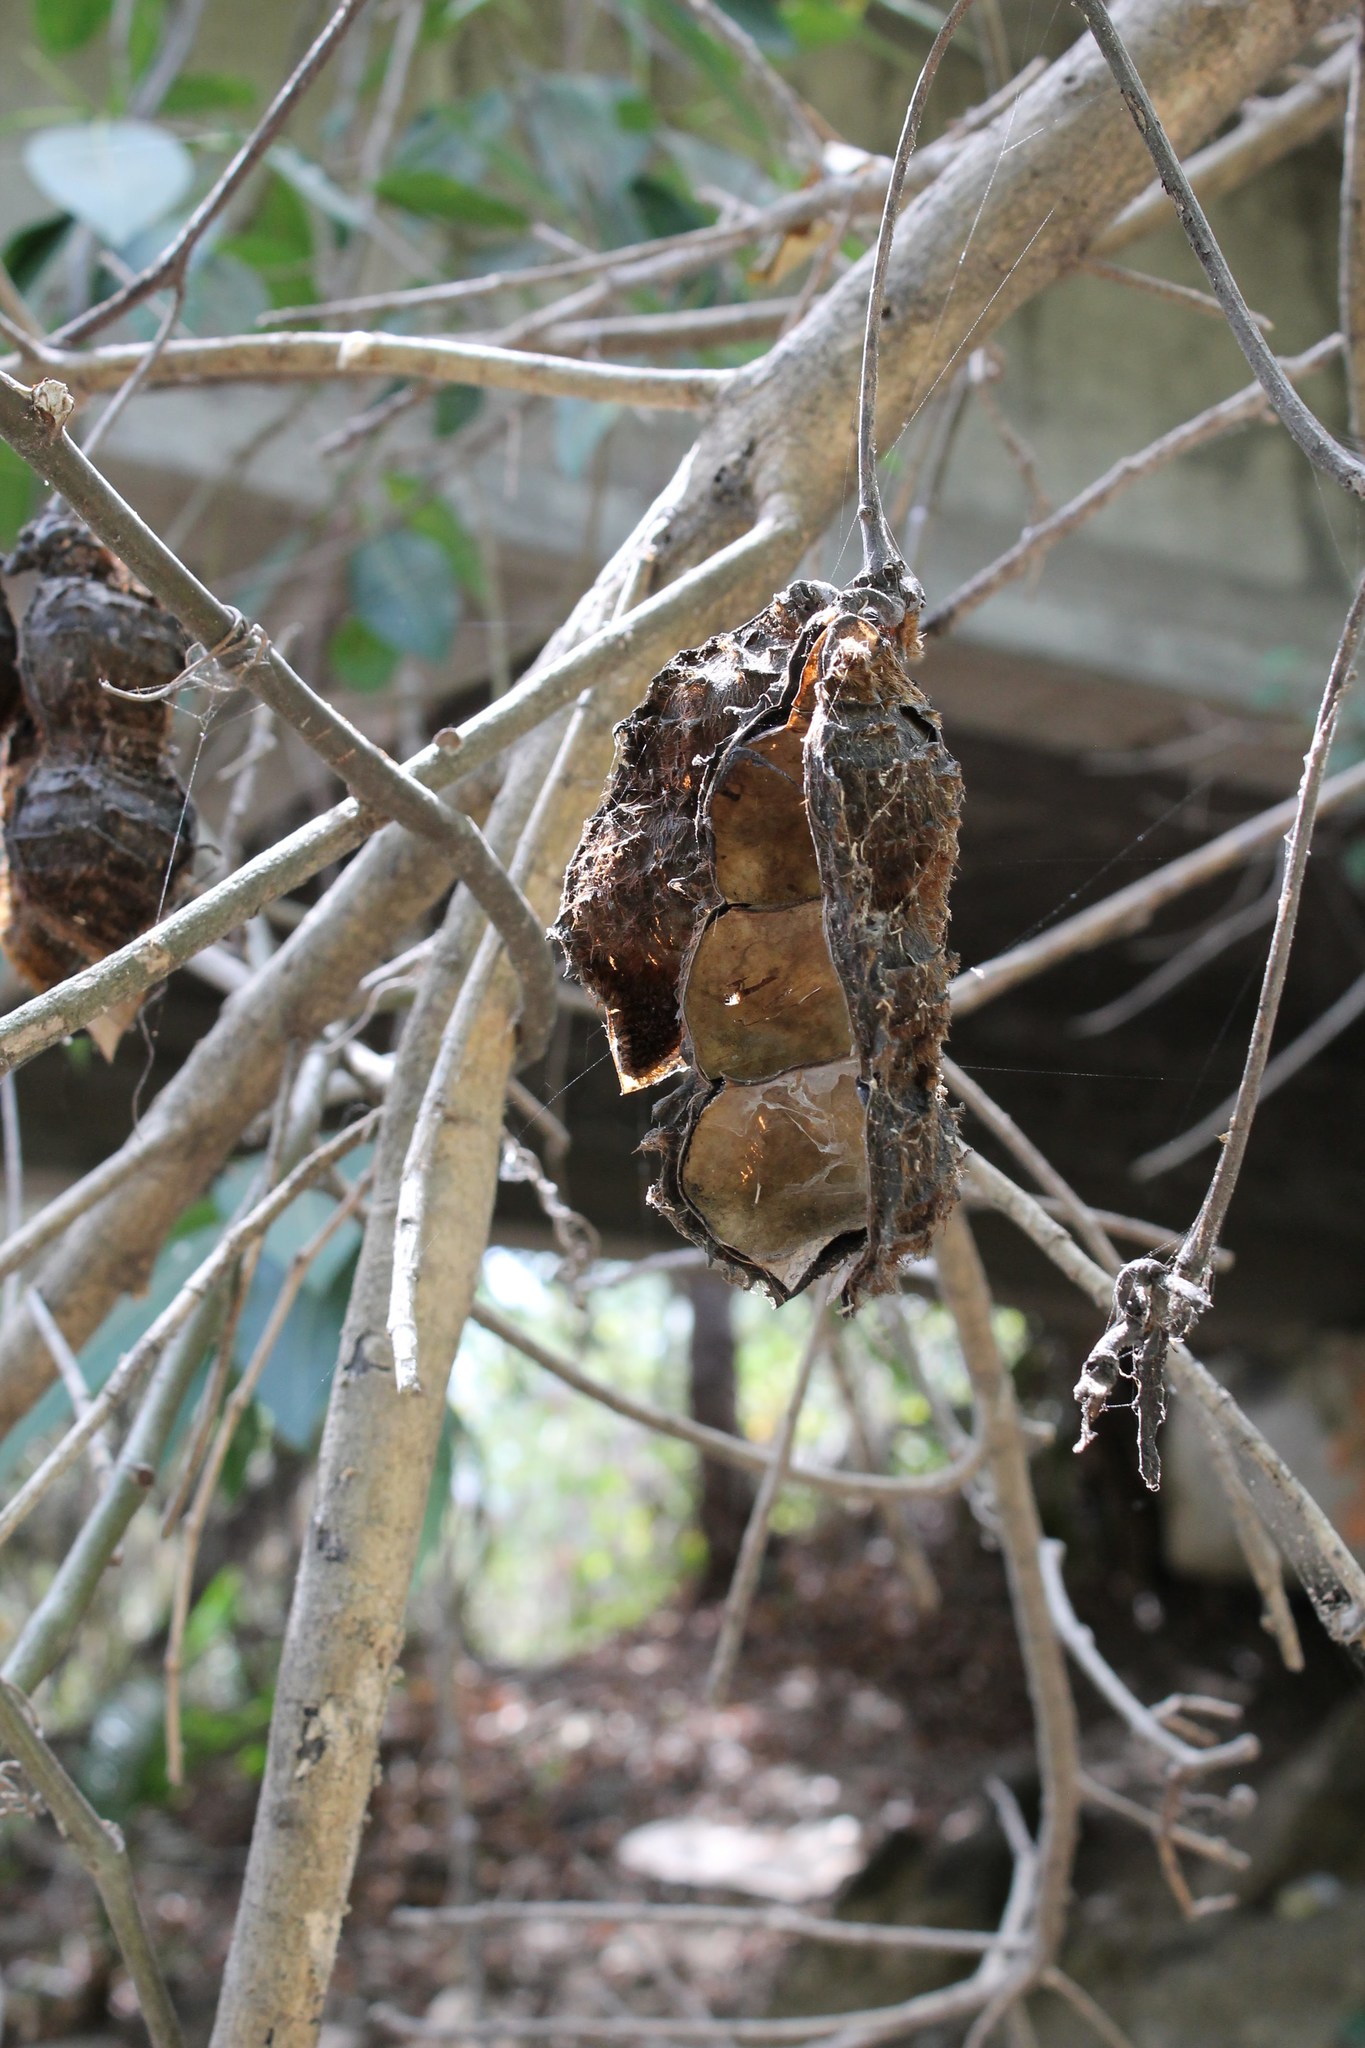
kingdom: Plantae
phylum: Tracheophyta
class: Magnoliopsida
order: Fabales
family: Fabaceae
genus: Mucuna
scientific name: Mucuna sloanei
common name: Horse-eye bean
